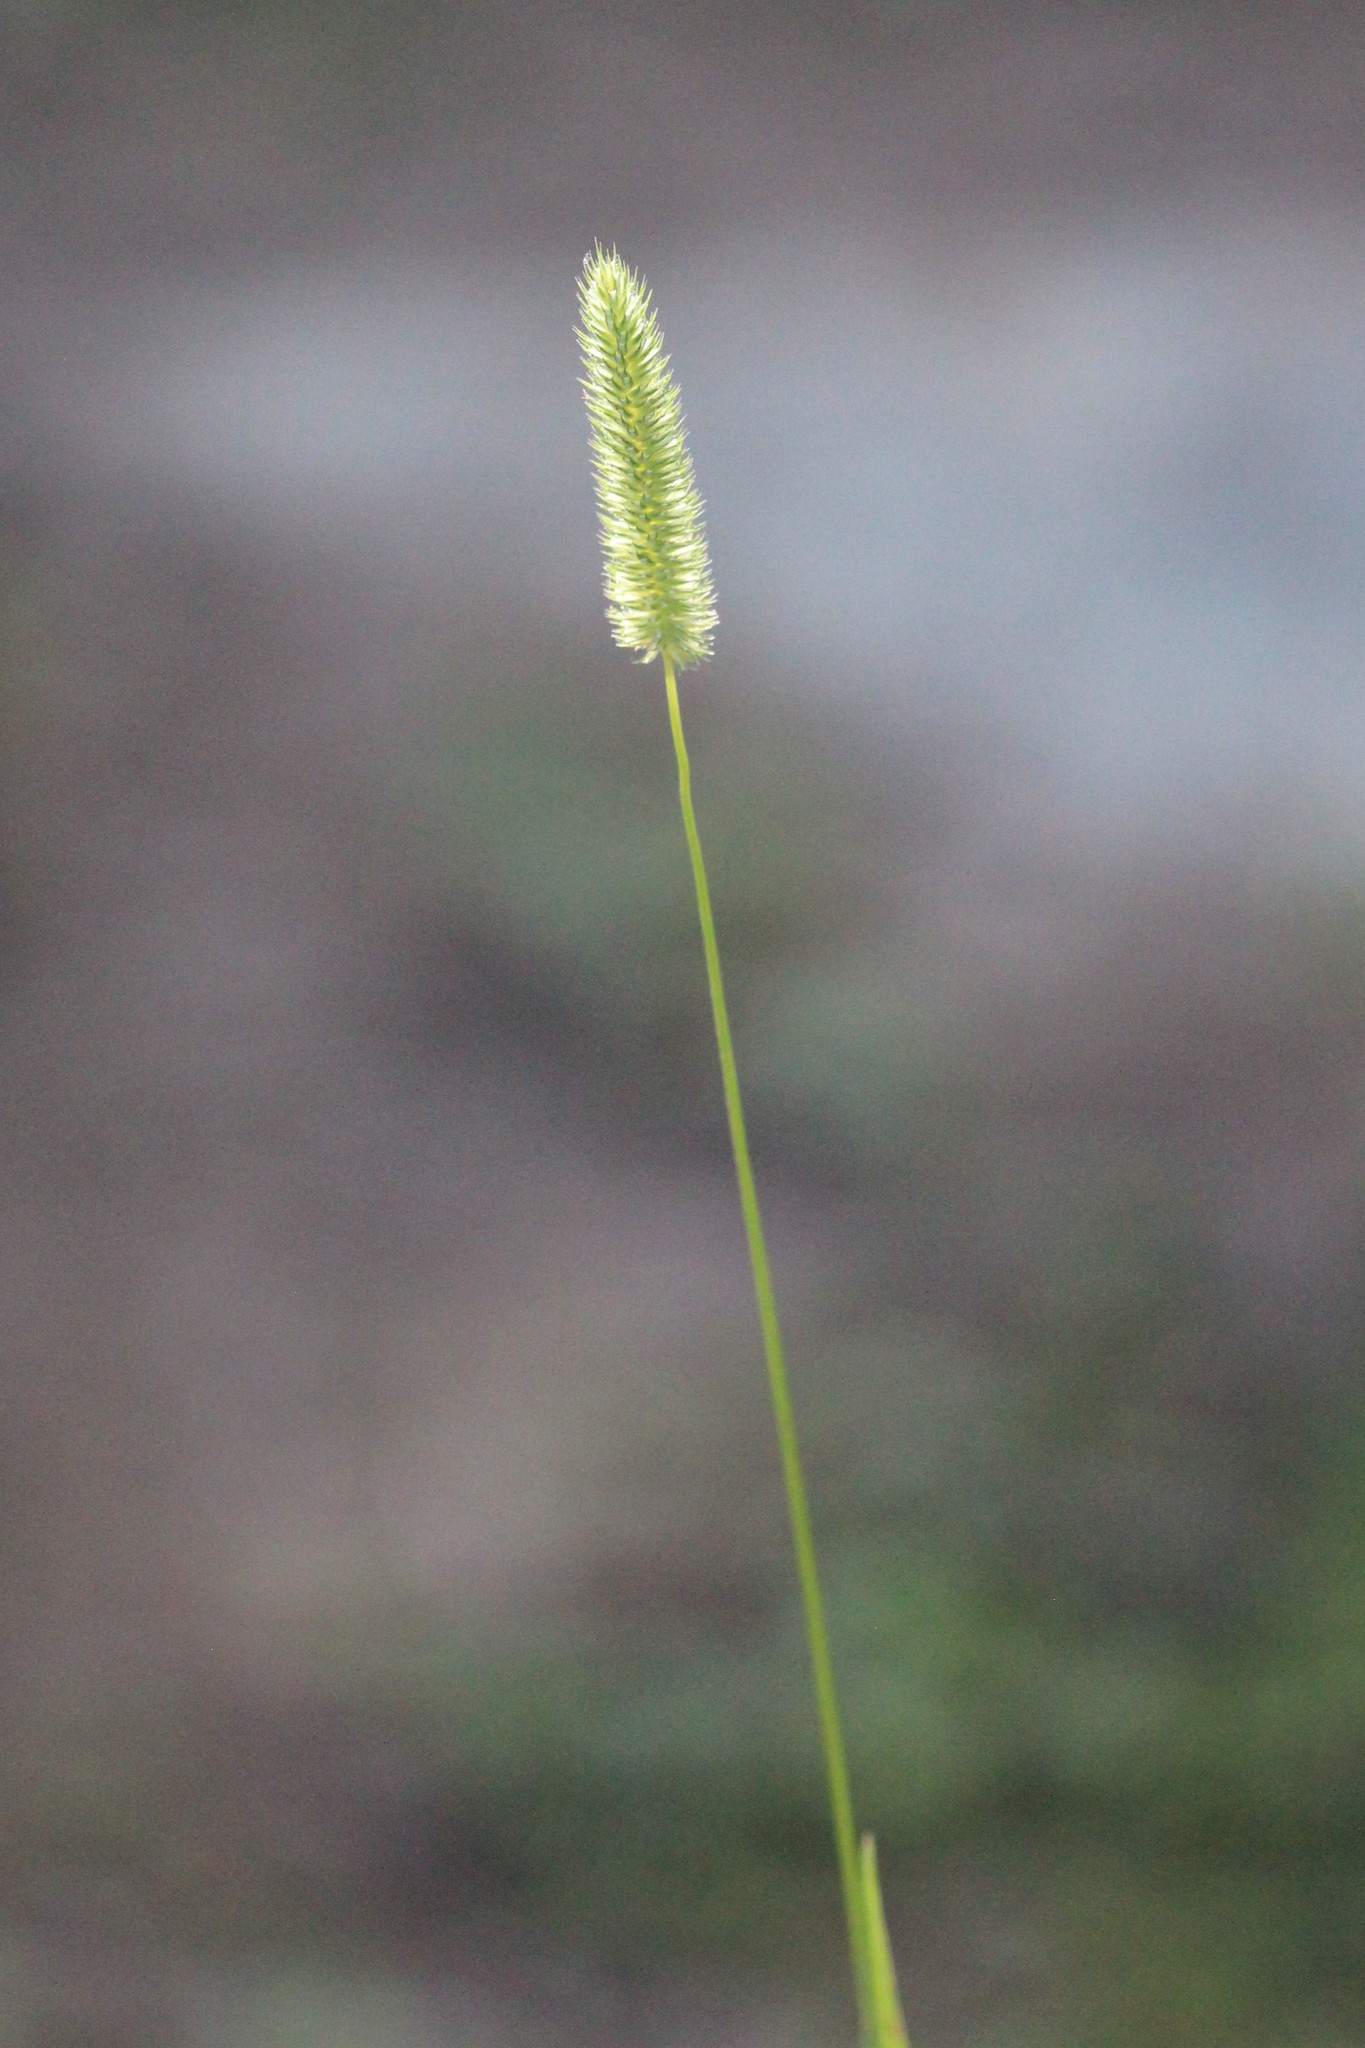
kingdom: Plantae
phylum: Tracheophyta
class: Liliopsida
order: Poales
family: Poaceae
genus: Phleum
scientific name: Phleum pratense
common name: Timothy grass
